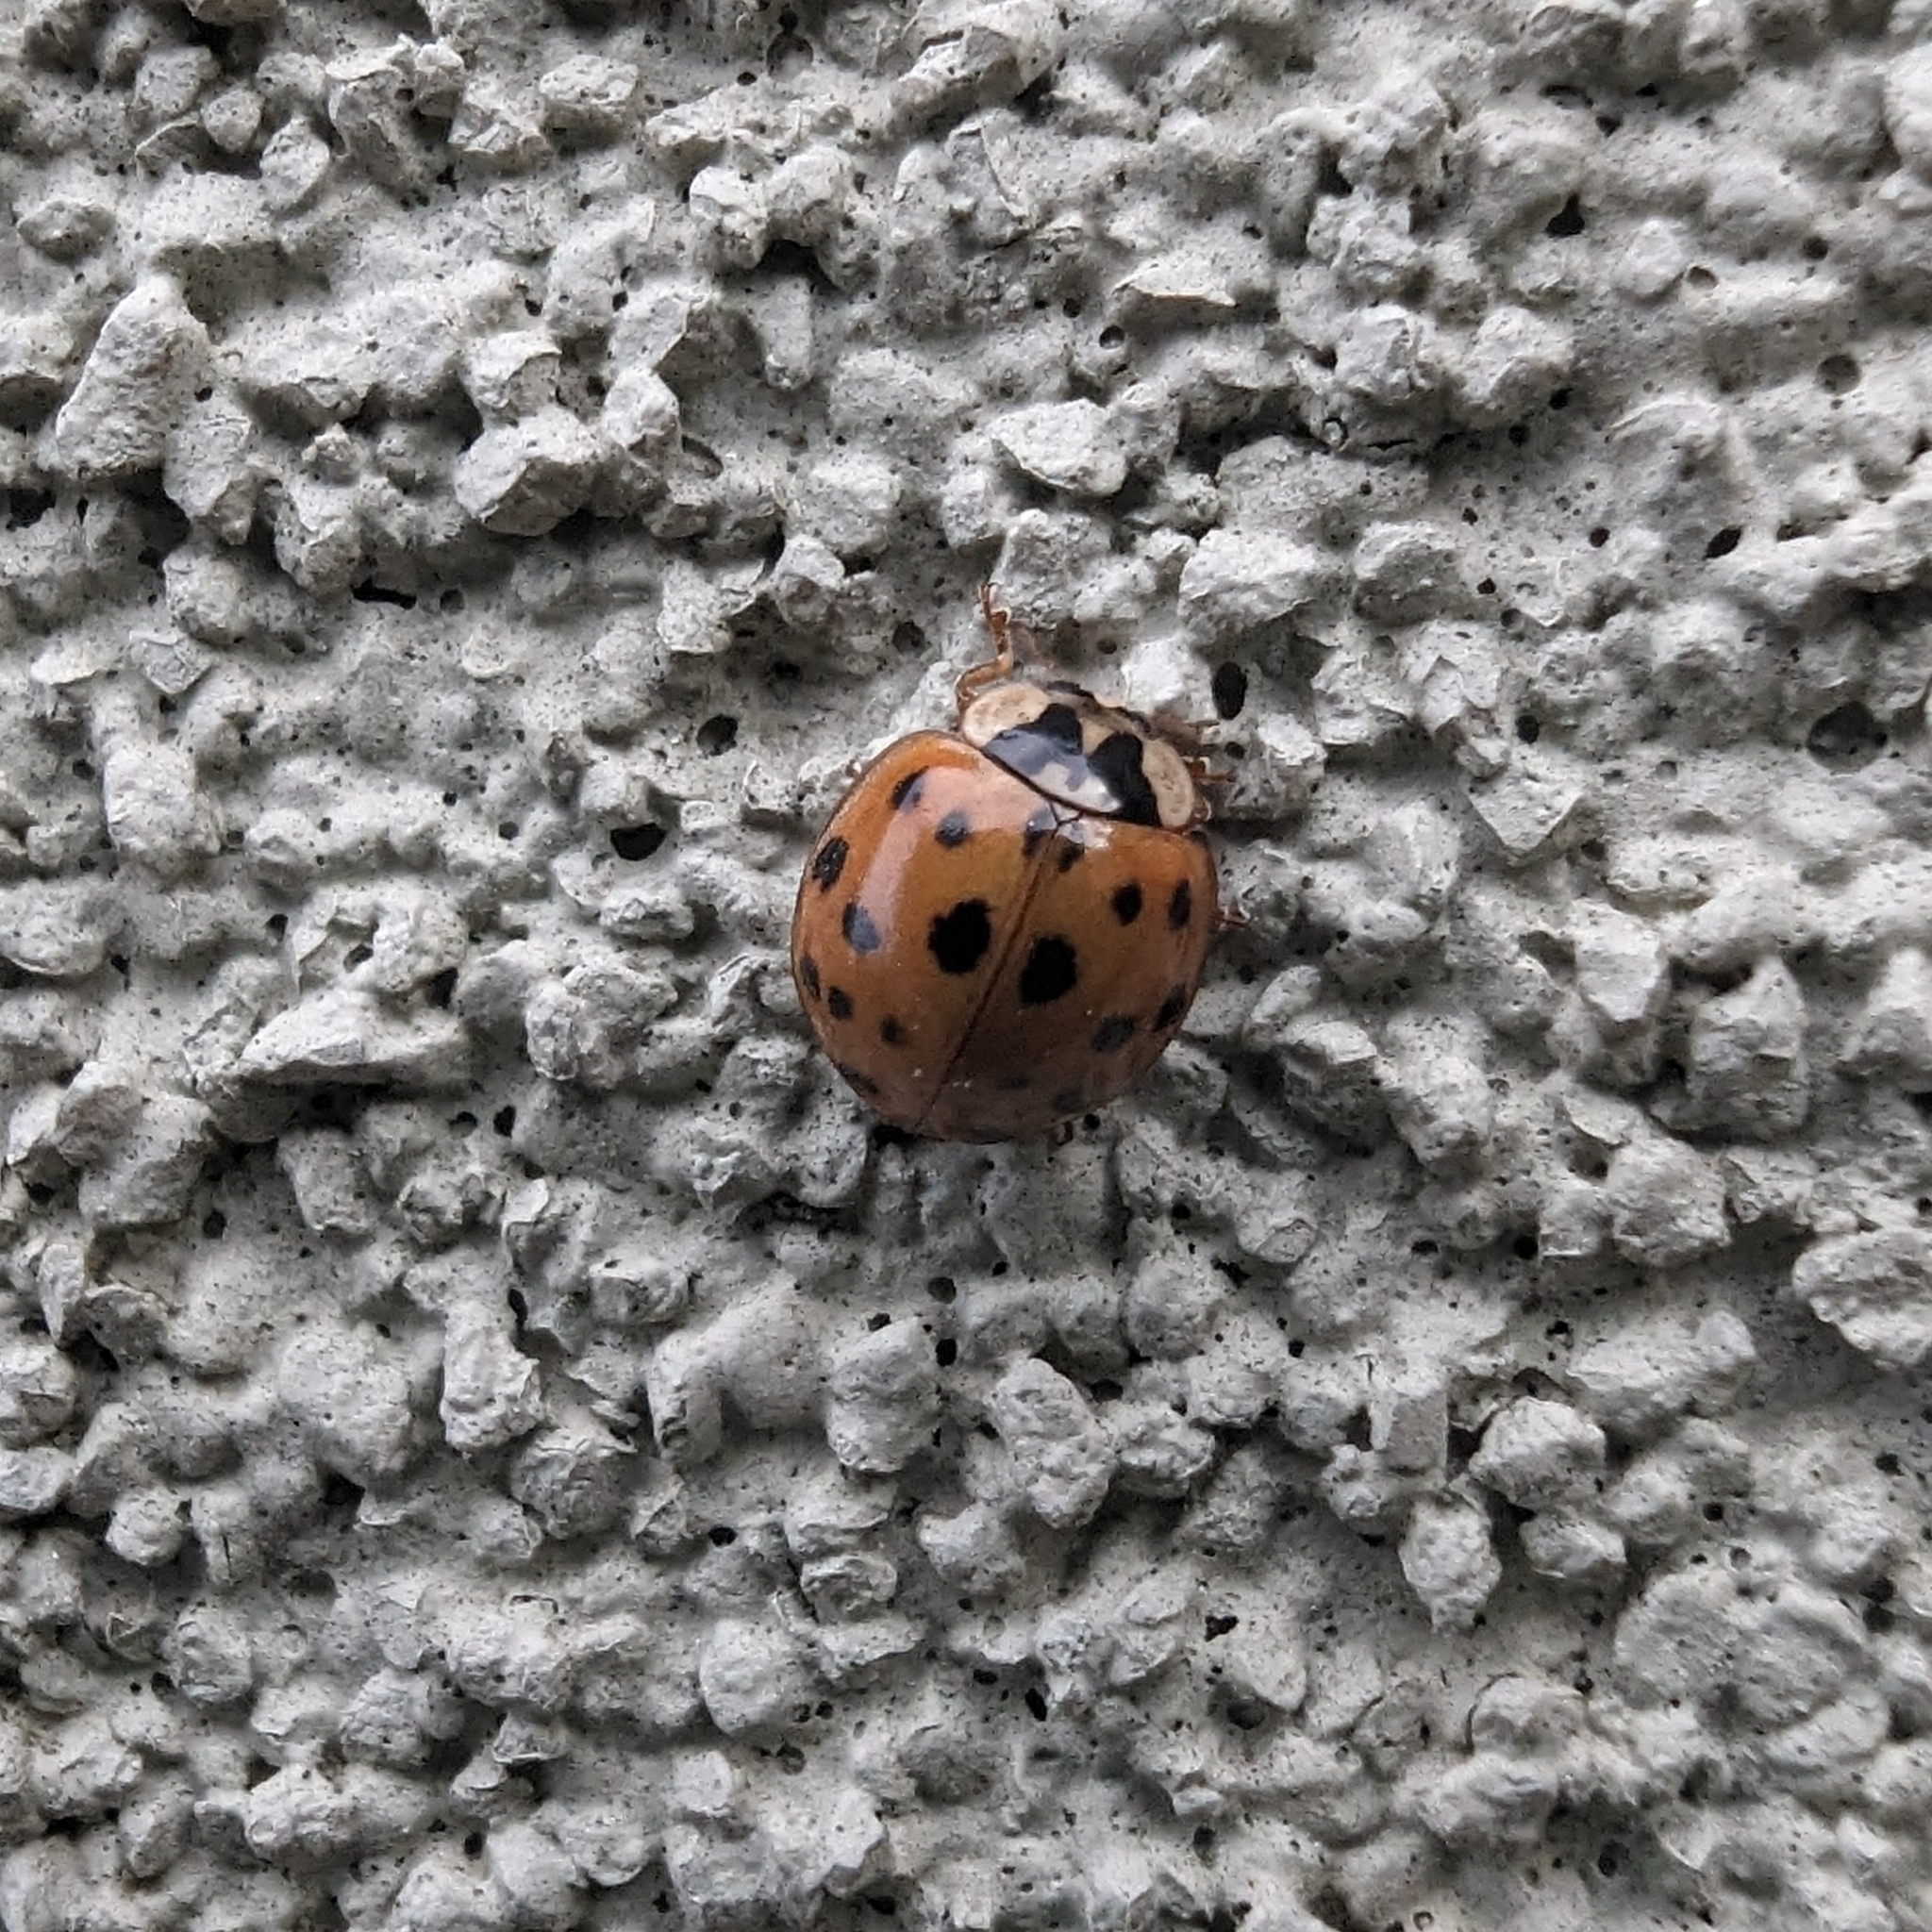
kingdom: Animalia
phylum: Arthropoda
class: Insecta
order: Coleoptera
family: Coccinellidae
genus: Harmonia
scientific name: Harmonia axyridis
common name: Harlequin ladybird
